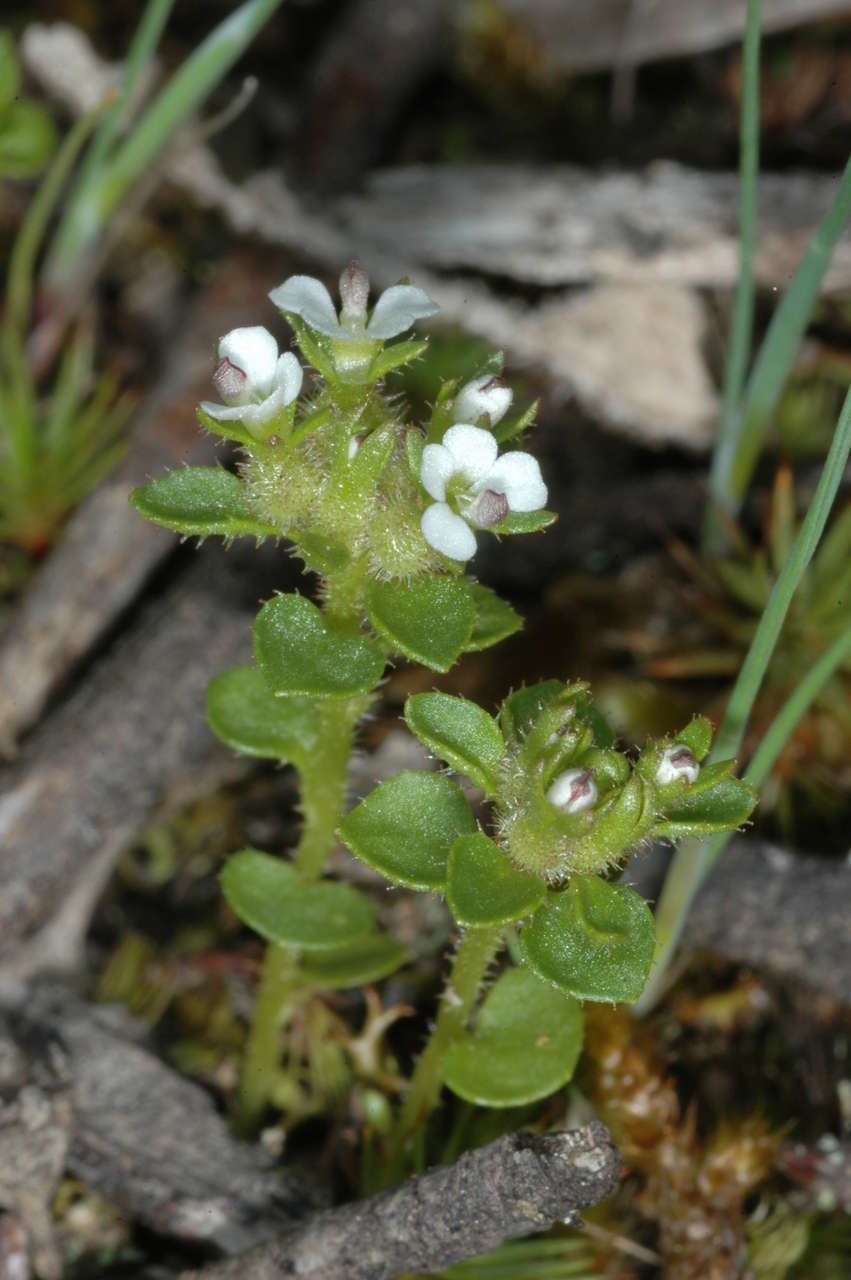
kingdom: Plantae
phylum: Tracheophyta
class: Magnoliopsida
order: Asterales
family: Stylidiaceae
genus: Levenhookia
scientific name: Levenhookia sonderi
